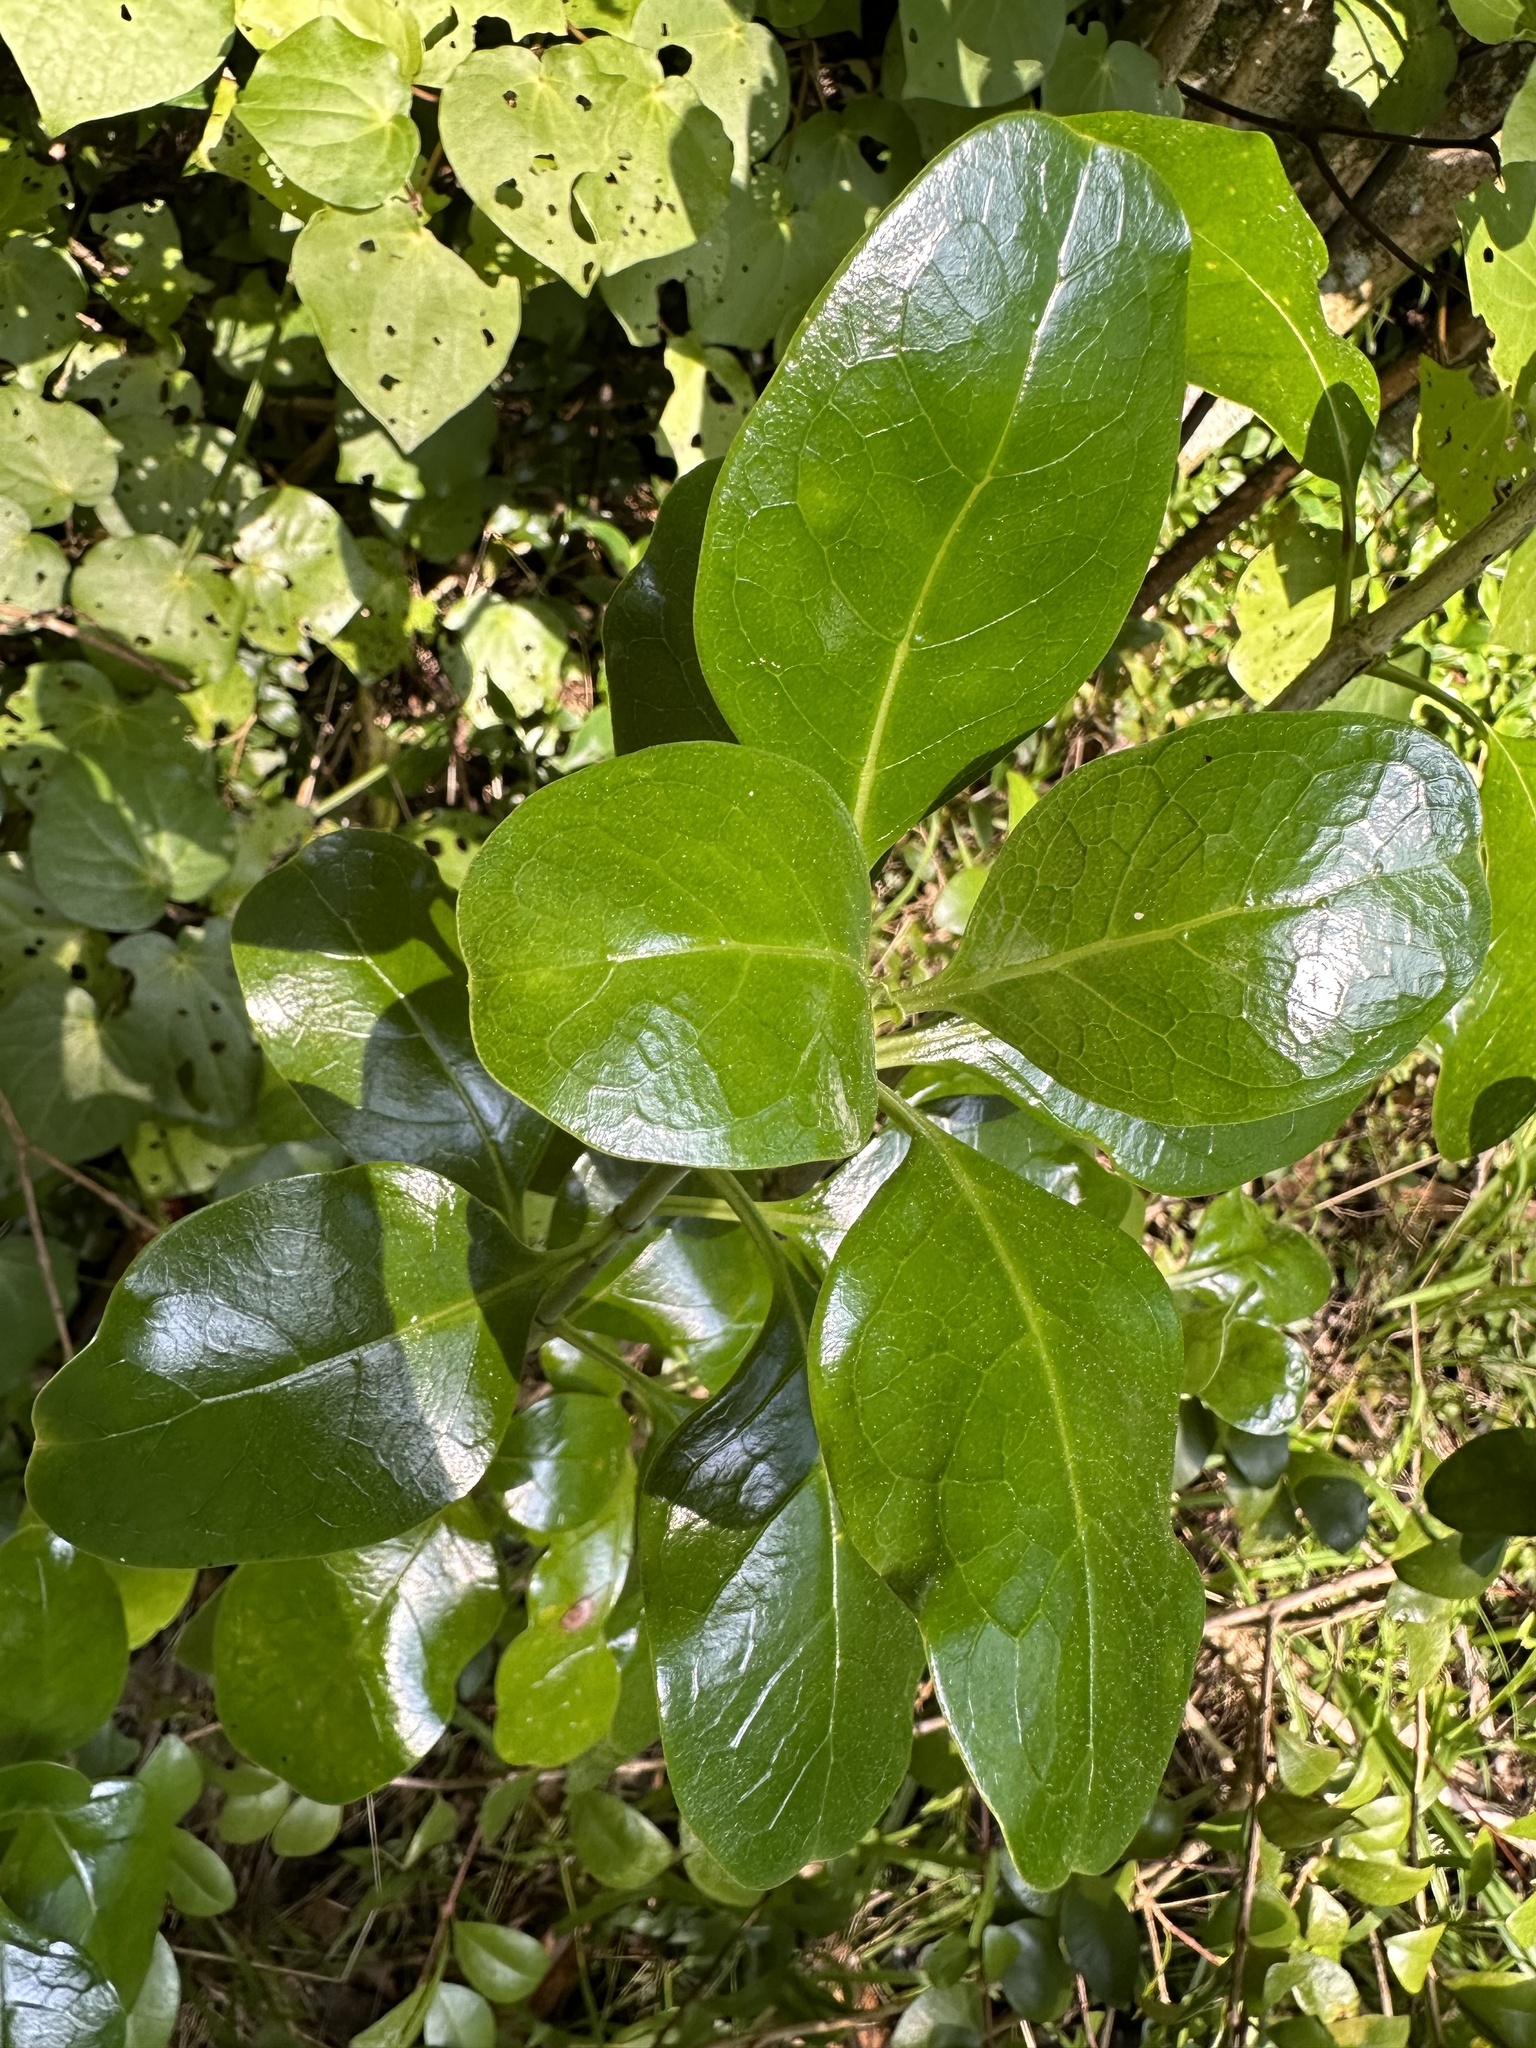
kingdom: Plantae
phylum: Tracheophyta
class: Magnoliopsida
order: Gentianales
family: Rubiaceae
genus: Coprosma
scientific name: Coprosma repens
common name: Tree bedstraw
